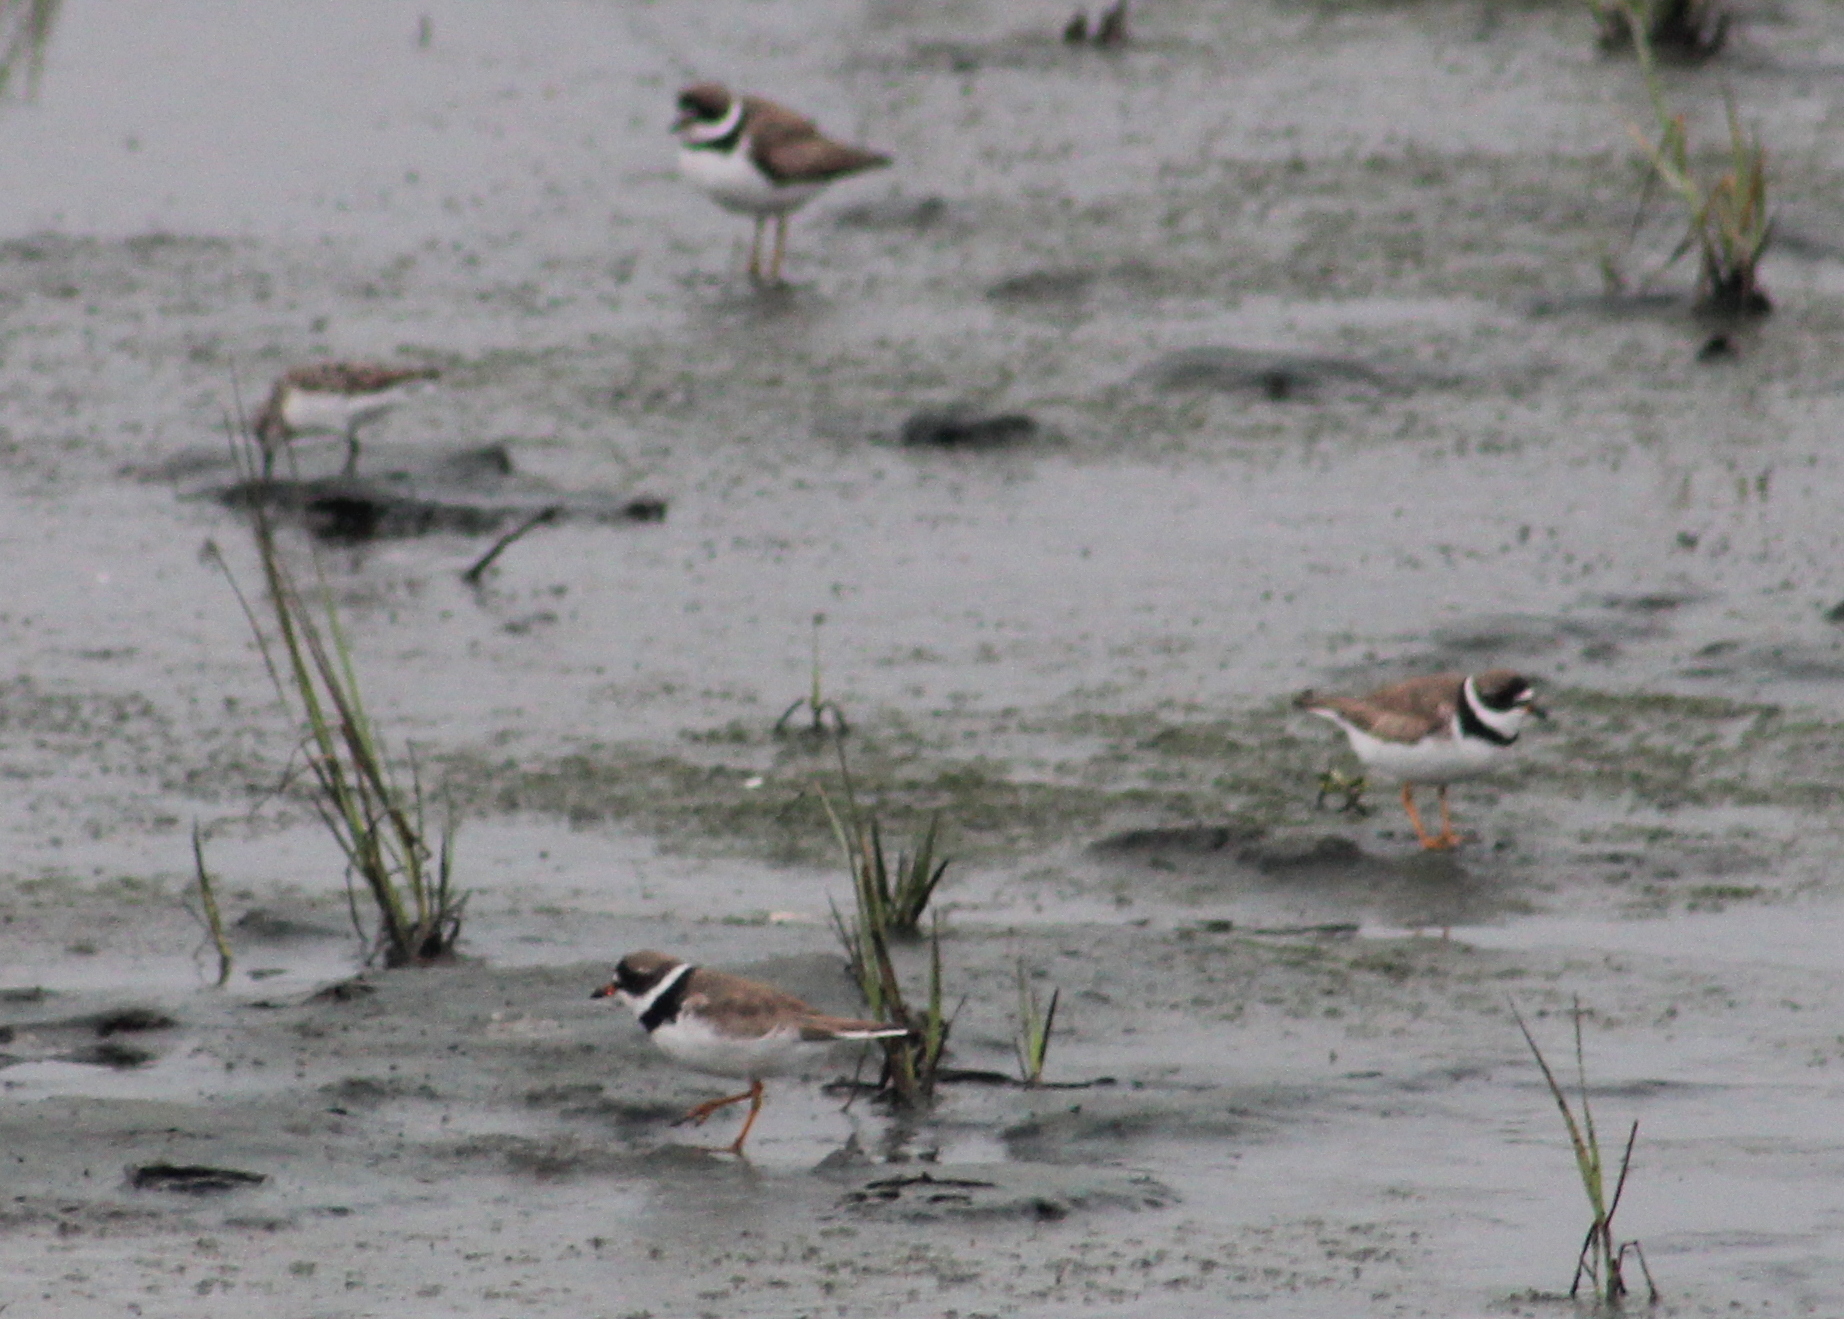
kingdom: Animalia
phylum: Chordata
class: Aves
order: Charadriiformes
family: Charadriidae
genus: Charadrius
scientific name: Charadrius semipalmatus
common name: Semipalmated plover
